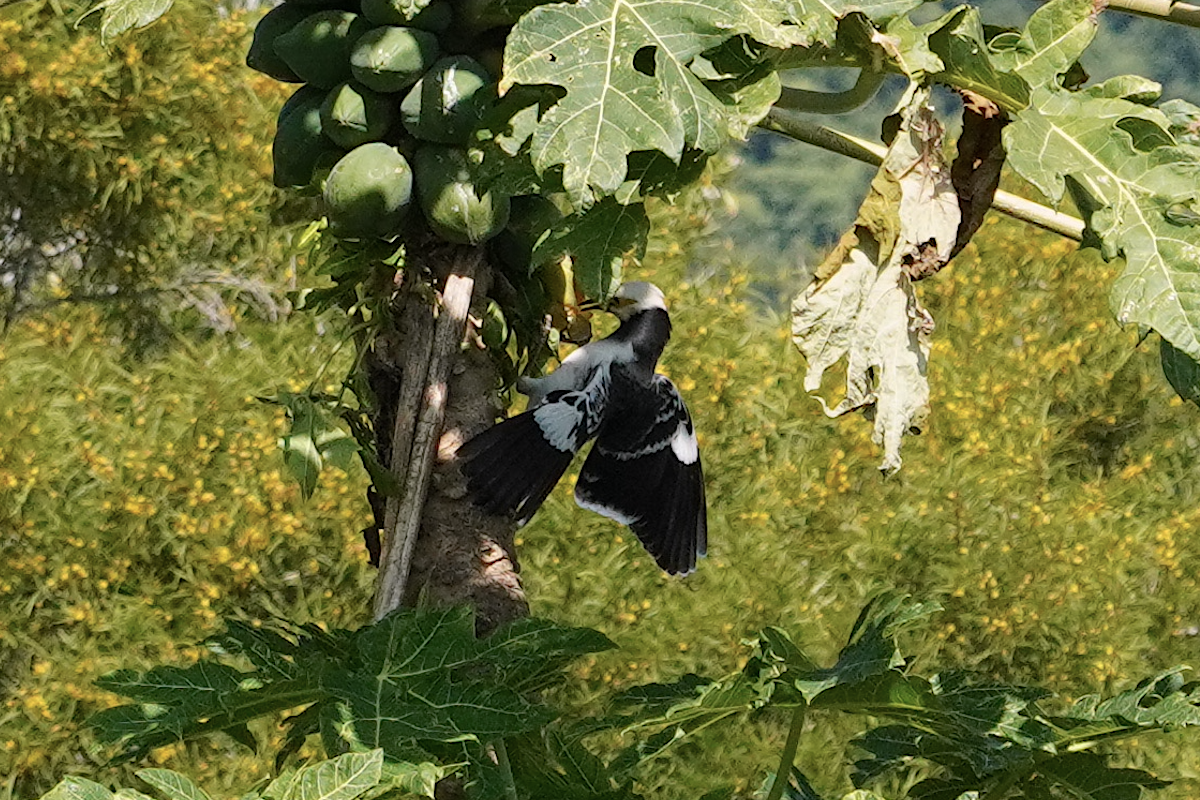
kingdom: Animalia
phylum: Chordata
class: Aves
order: Passeriformes
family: Sturnidae
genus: Gracupica
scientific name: Gracupica nigricollis
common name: Black-collared starling
